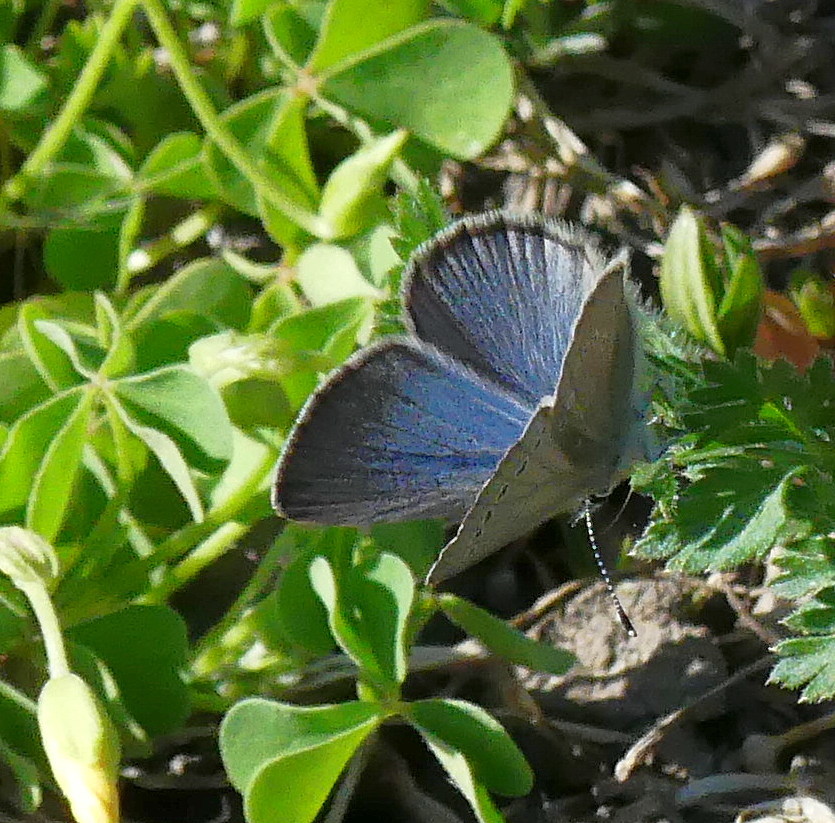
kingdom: Animalia
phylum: Arthropoda
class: Insecta
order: Lepidoptera
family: Lycaenidae
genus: Glaucopsyche
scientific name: Glaucopsyche lygdamus
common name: Silvery blue
